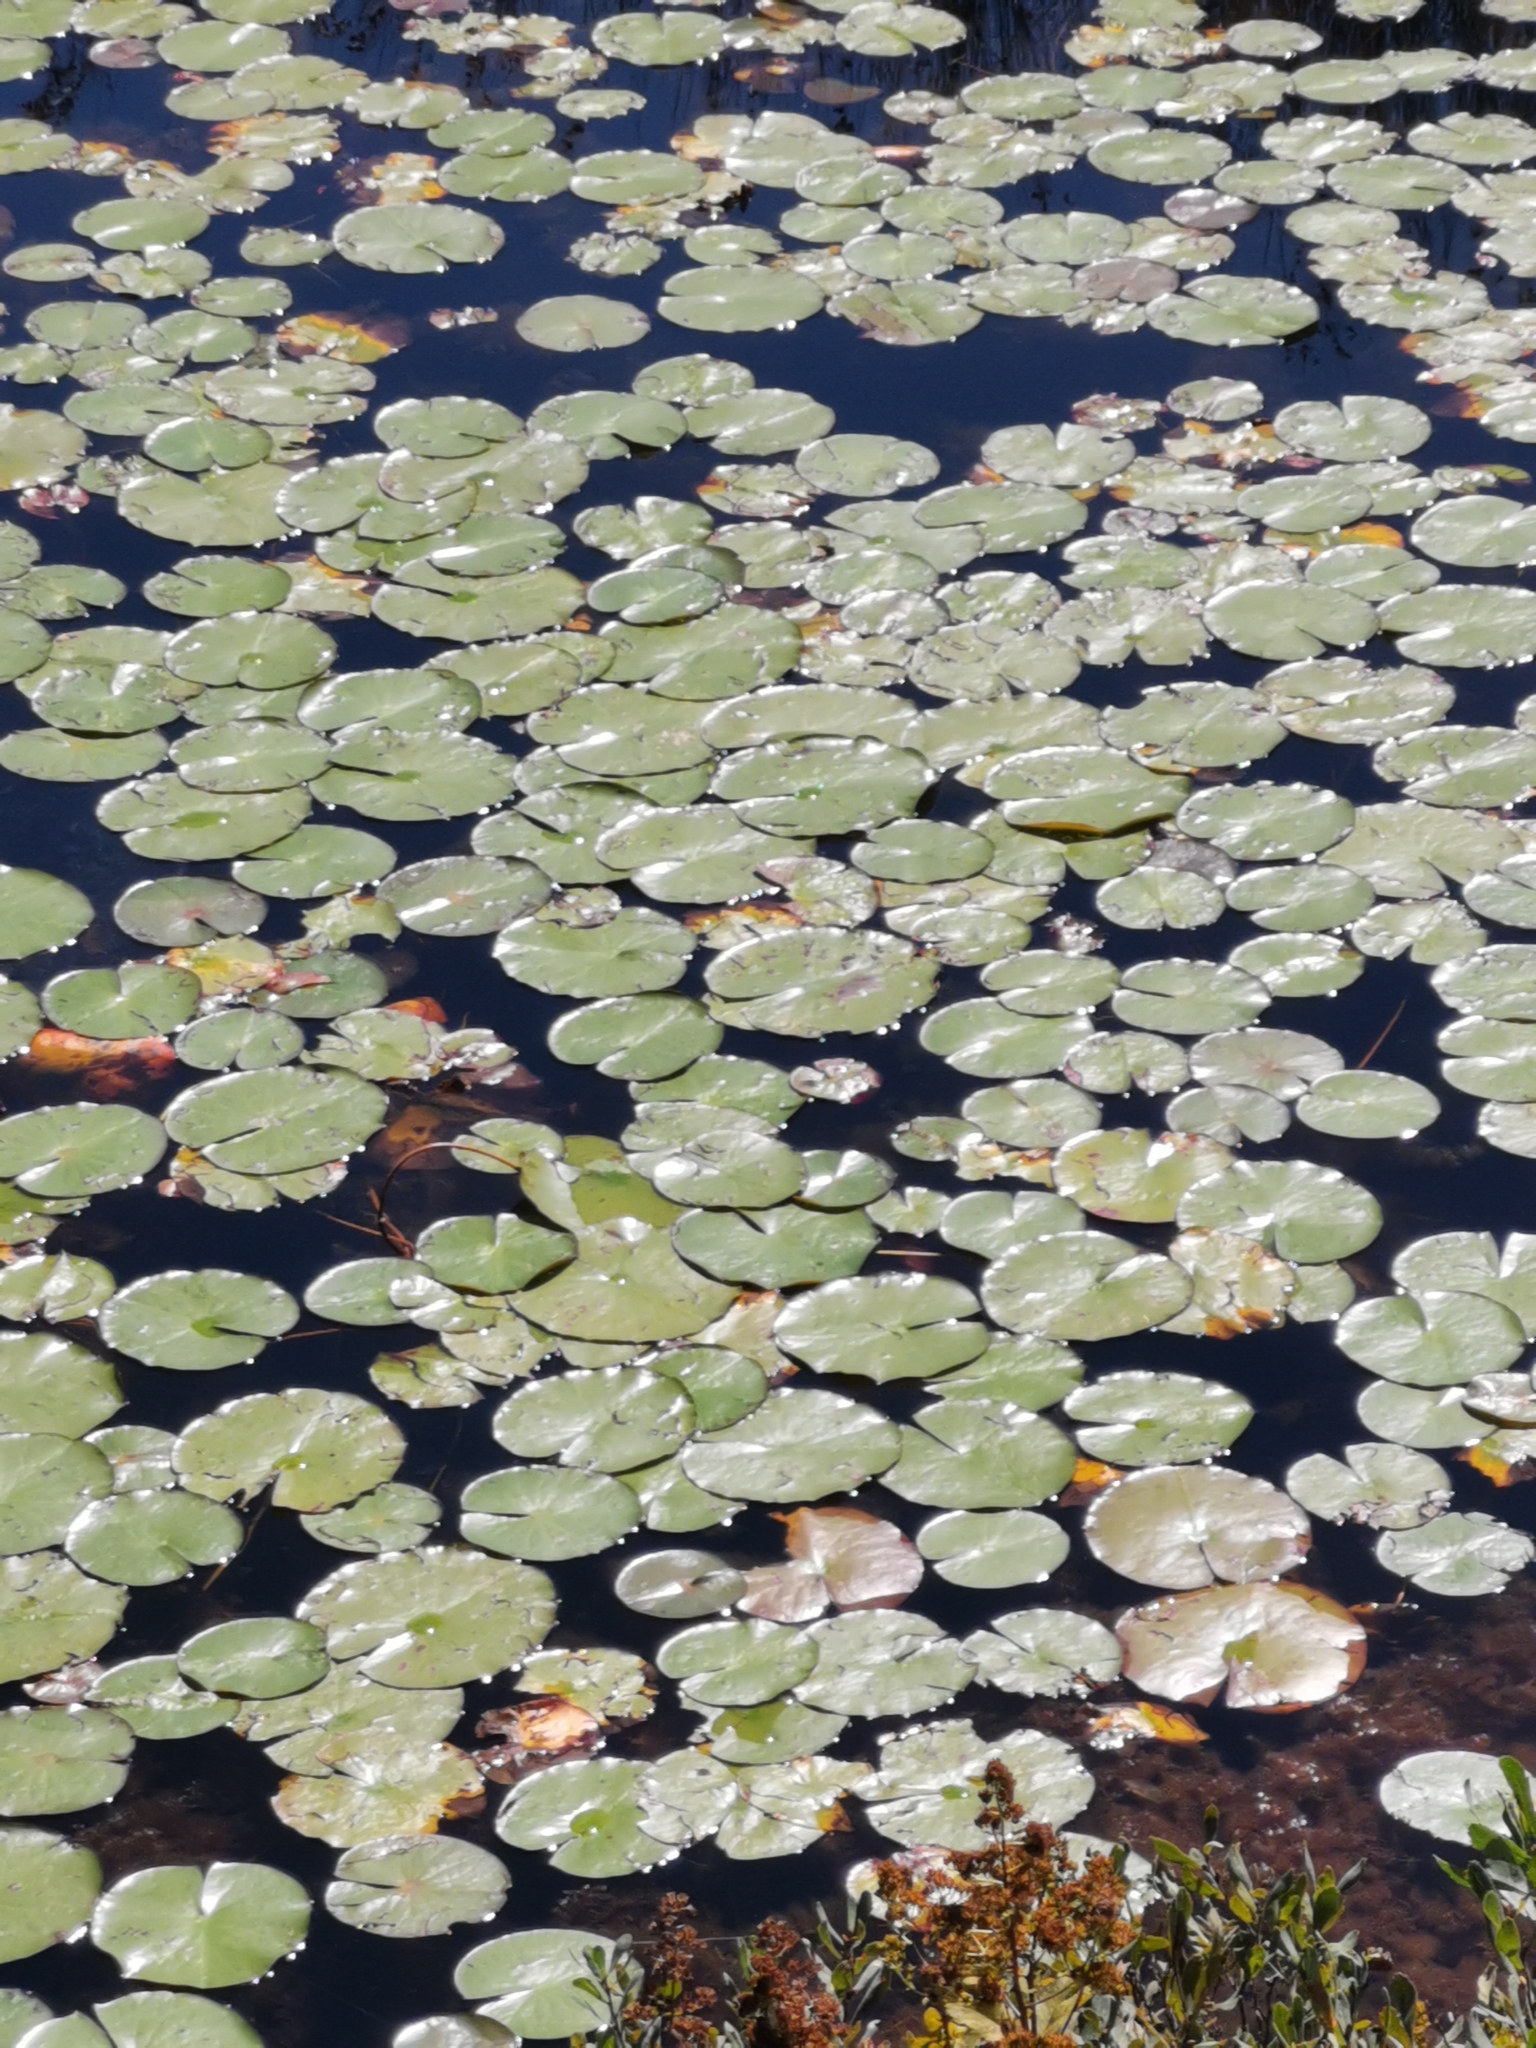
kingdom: Plantae
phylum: Tracheophyta
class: Magnoliopsida
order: Nymphaeales
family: Nymphaeaceae
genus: Nymphaea
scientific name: Nymphaea odorata
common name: Fragrant water-lily
